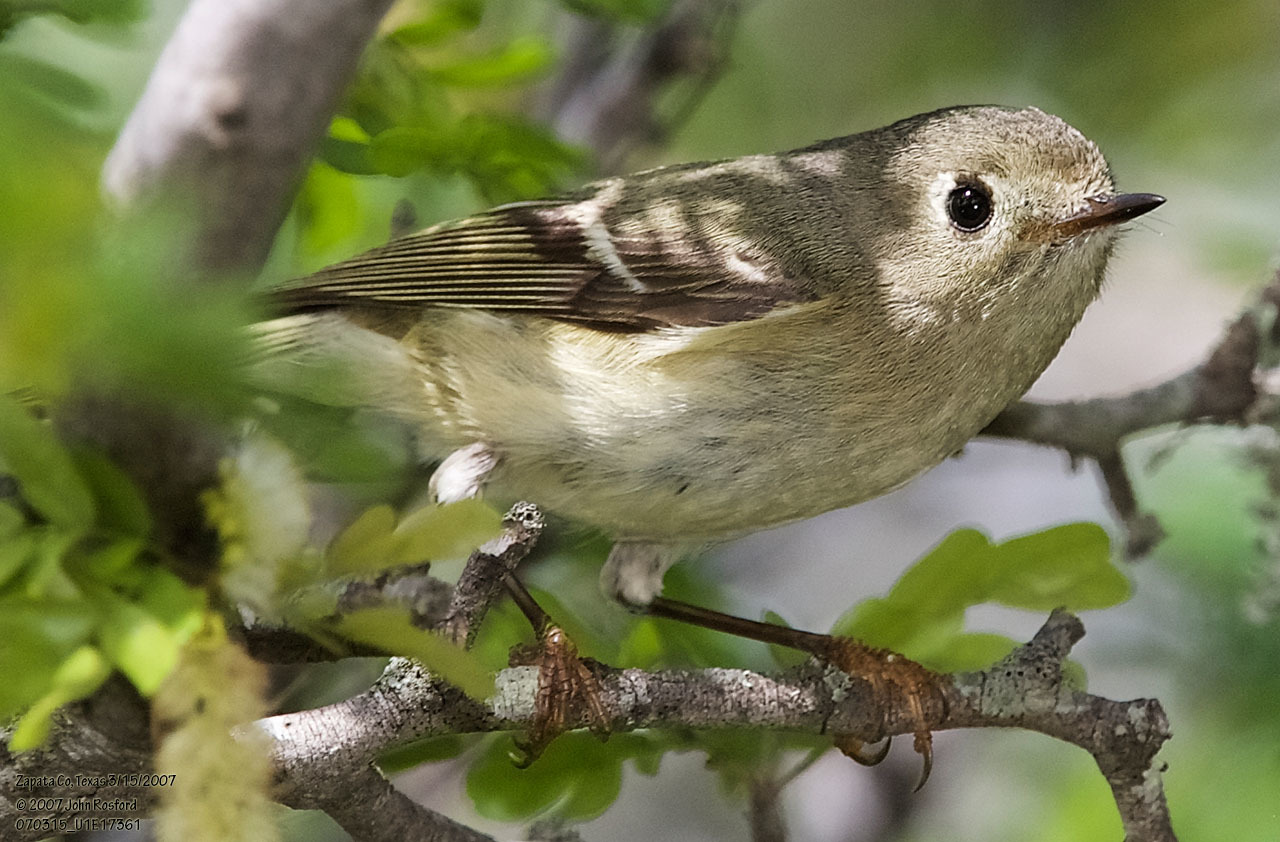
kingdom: Animalia
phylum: Chordata
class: Aves
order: Passeriformes
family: Regulidae
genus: Regulus
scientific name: Regulus calendula
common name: Ruby-crowned kinglet
